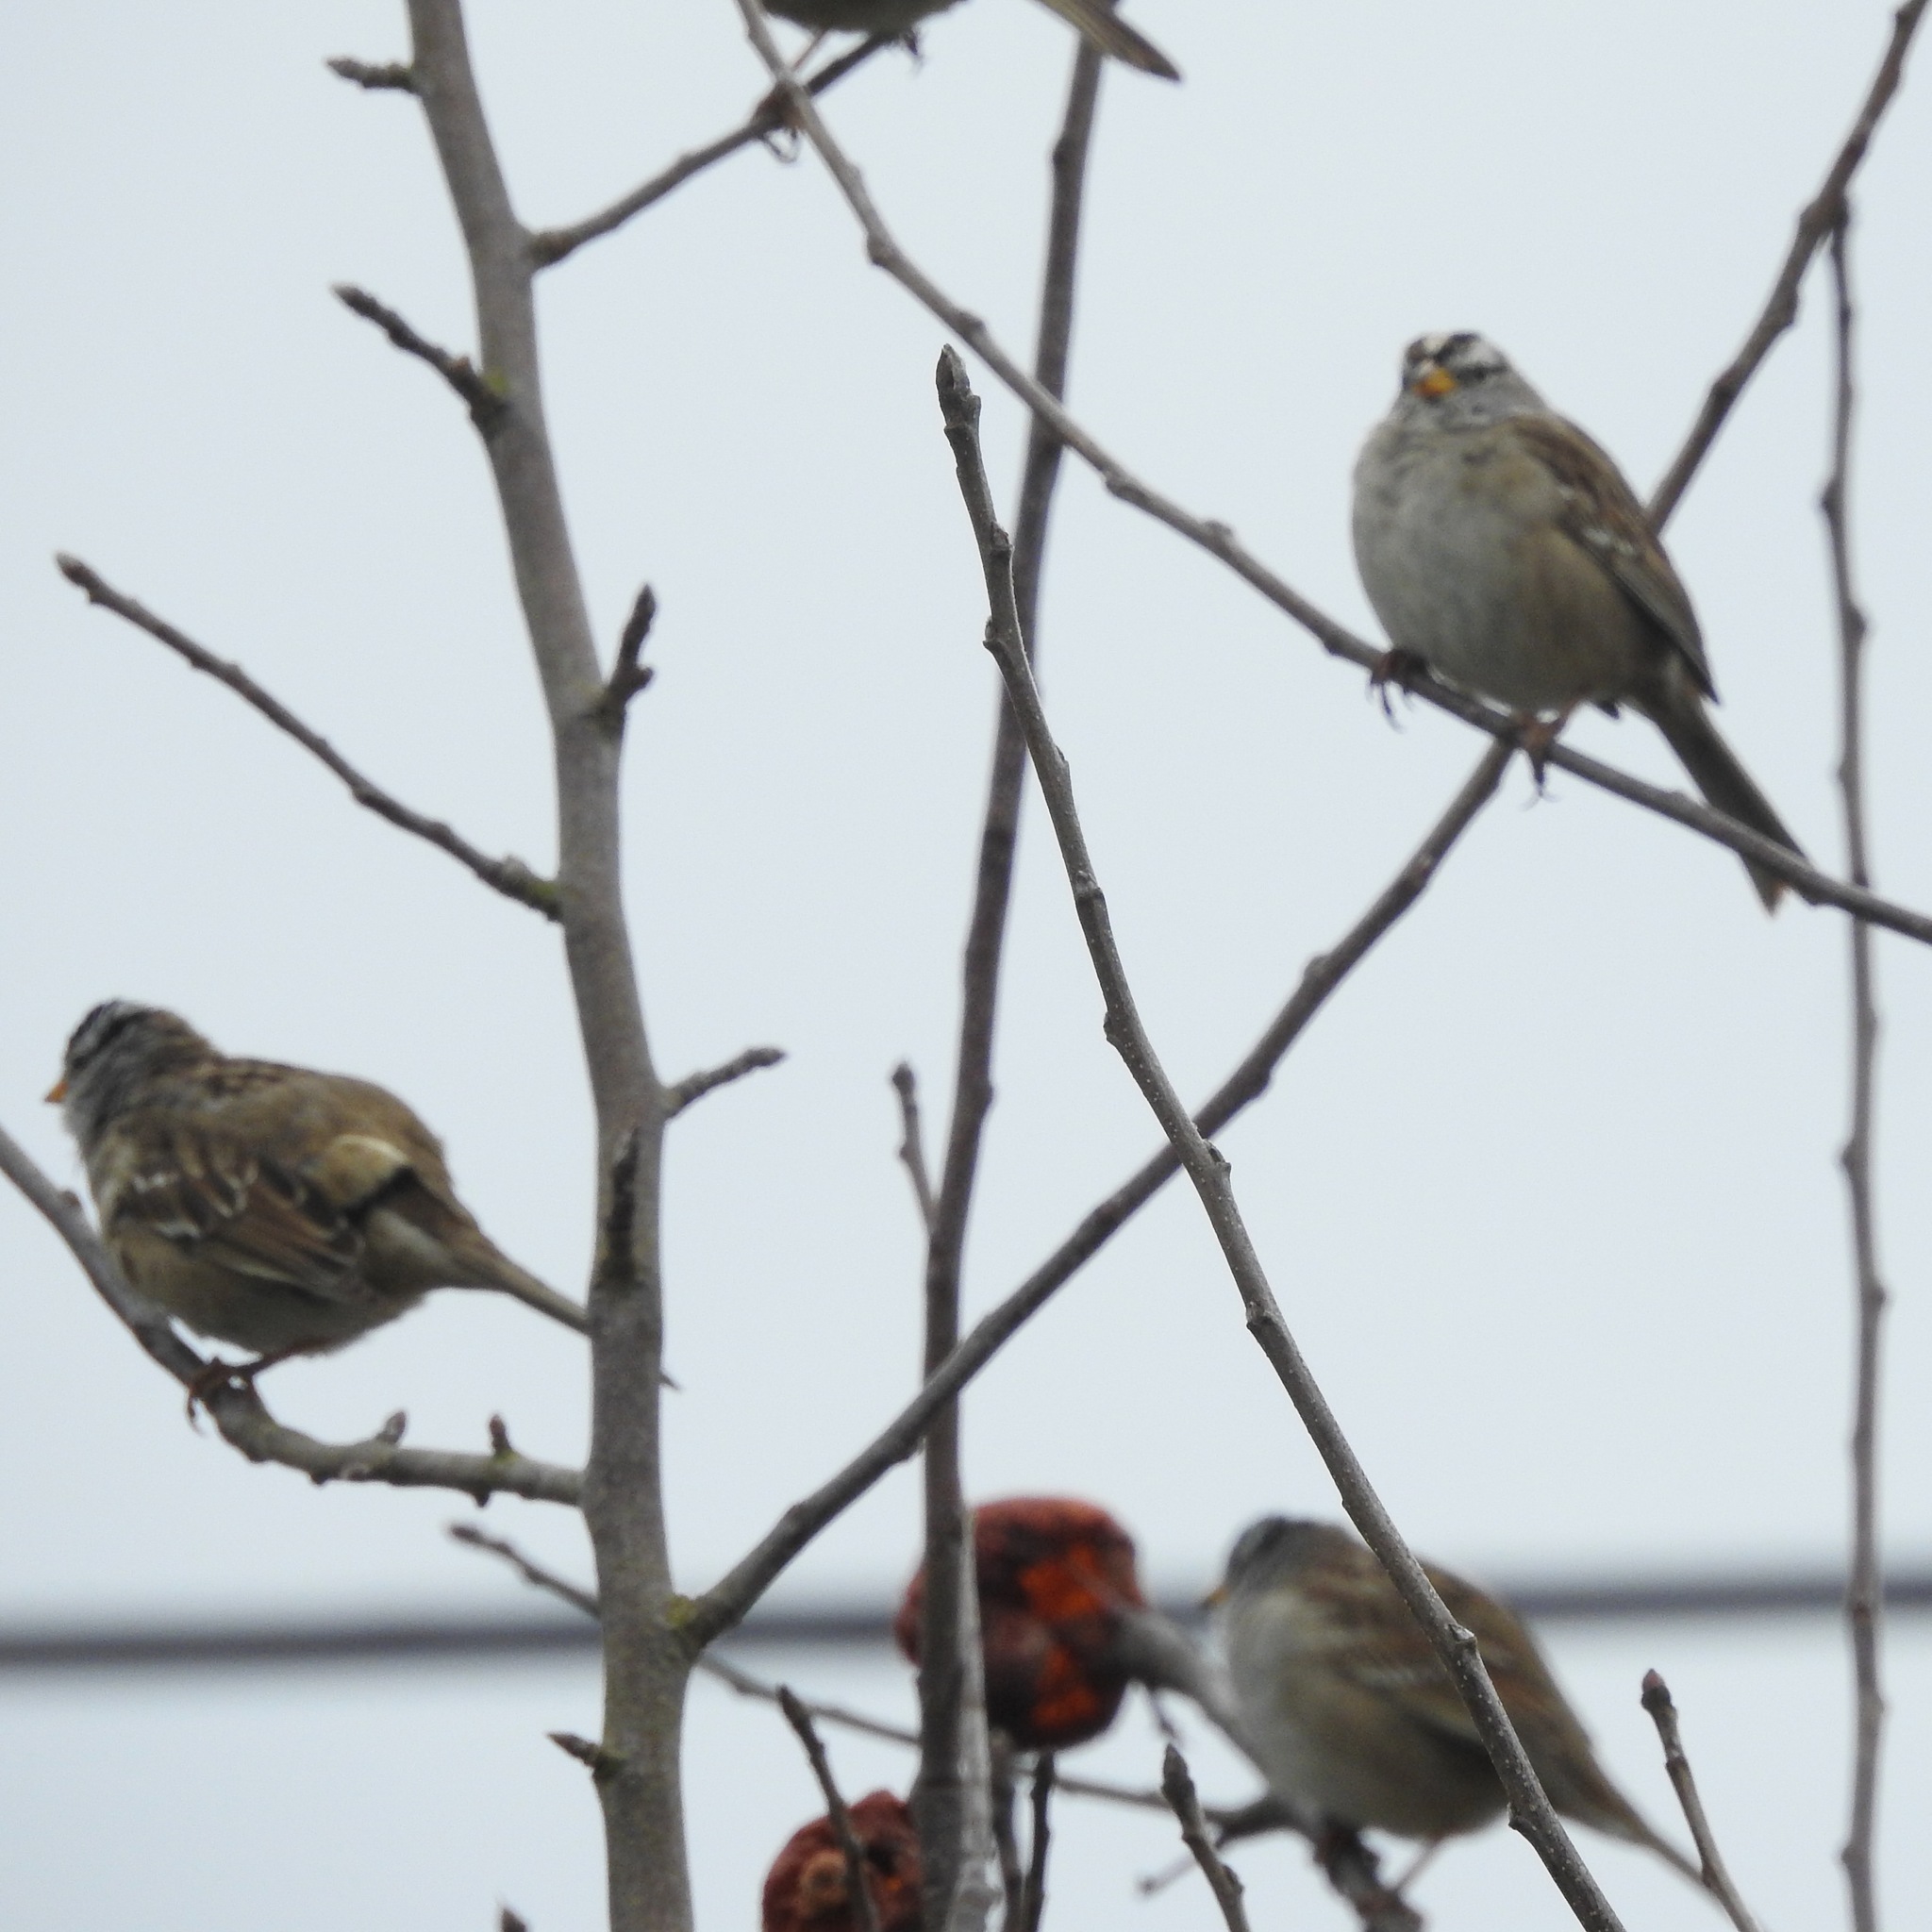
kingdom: Animalia
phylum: Chordata
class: Aves
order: Passeriformes
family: Passerellidae
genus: Zonotrichia
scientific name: Zonotrichia leucophrys
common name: White-crowned sparrow
